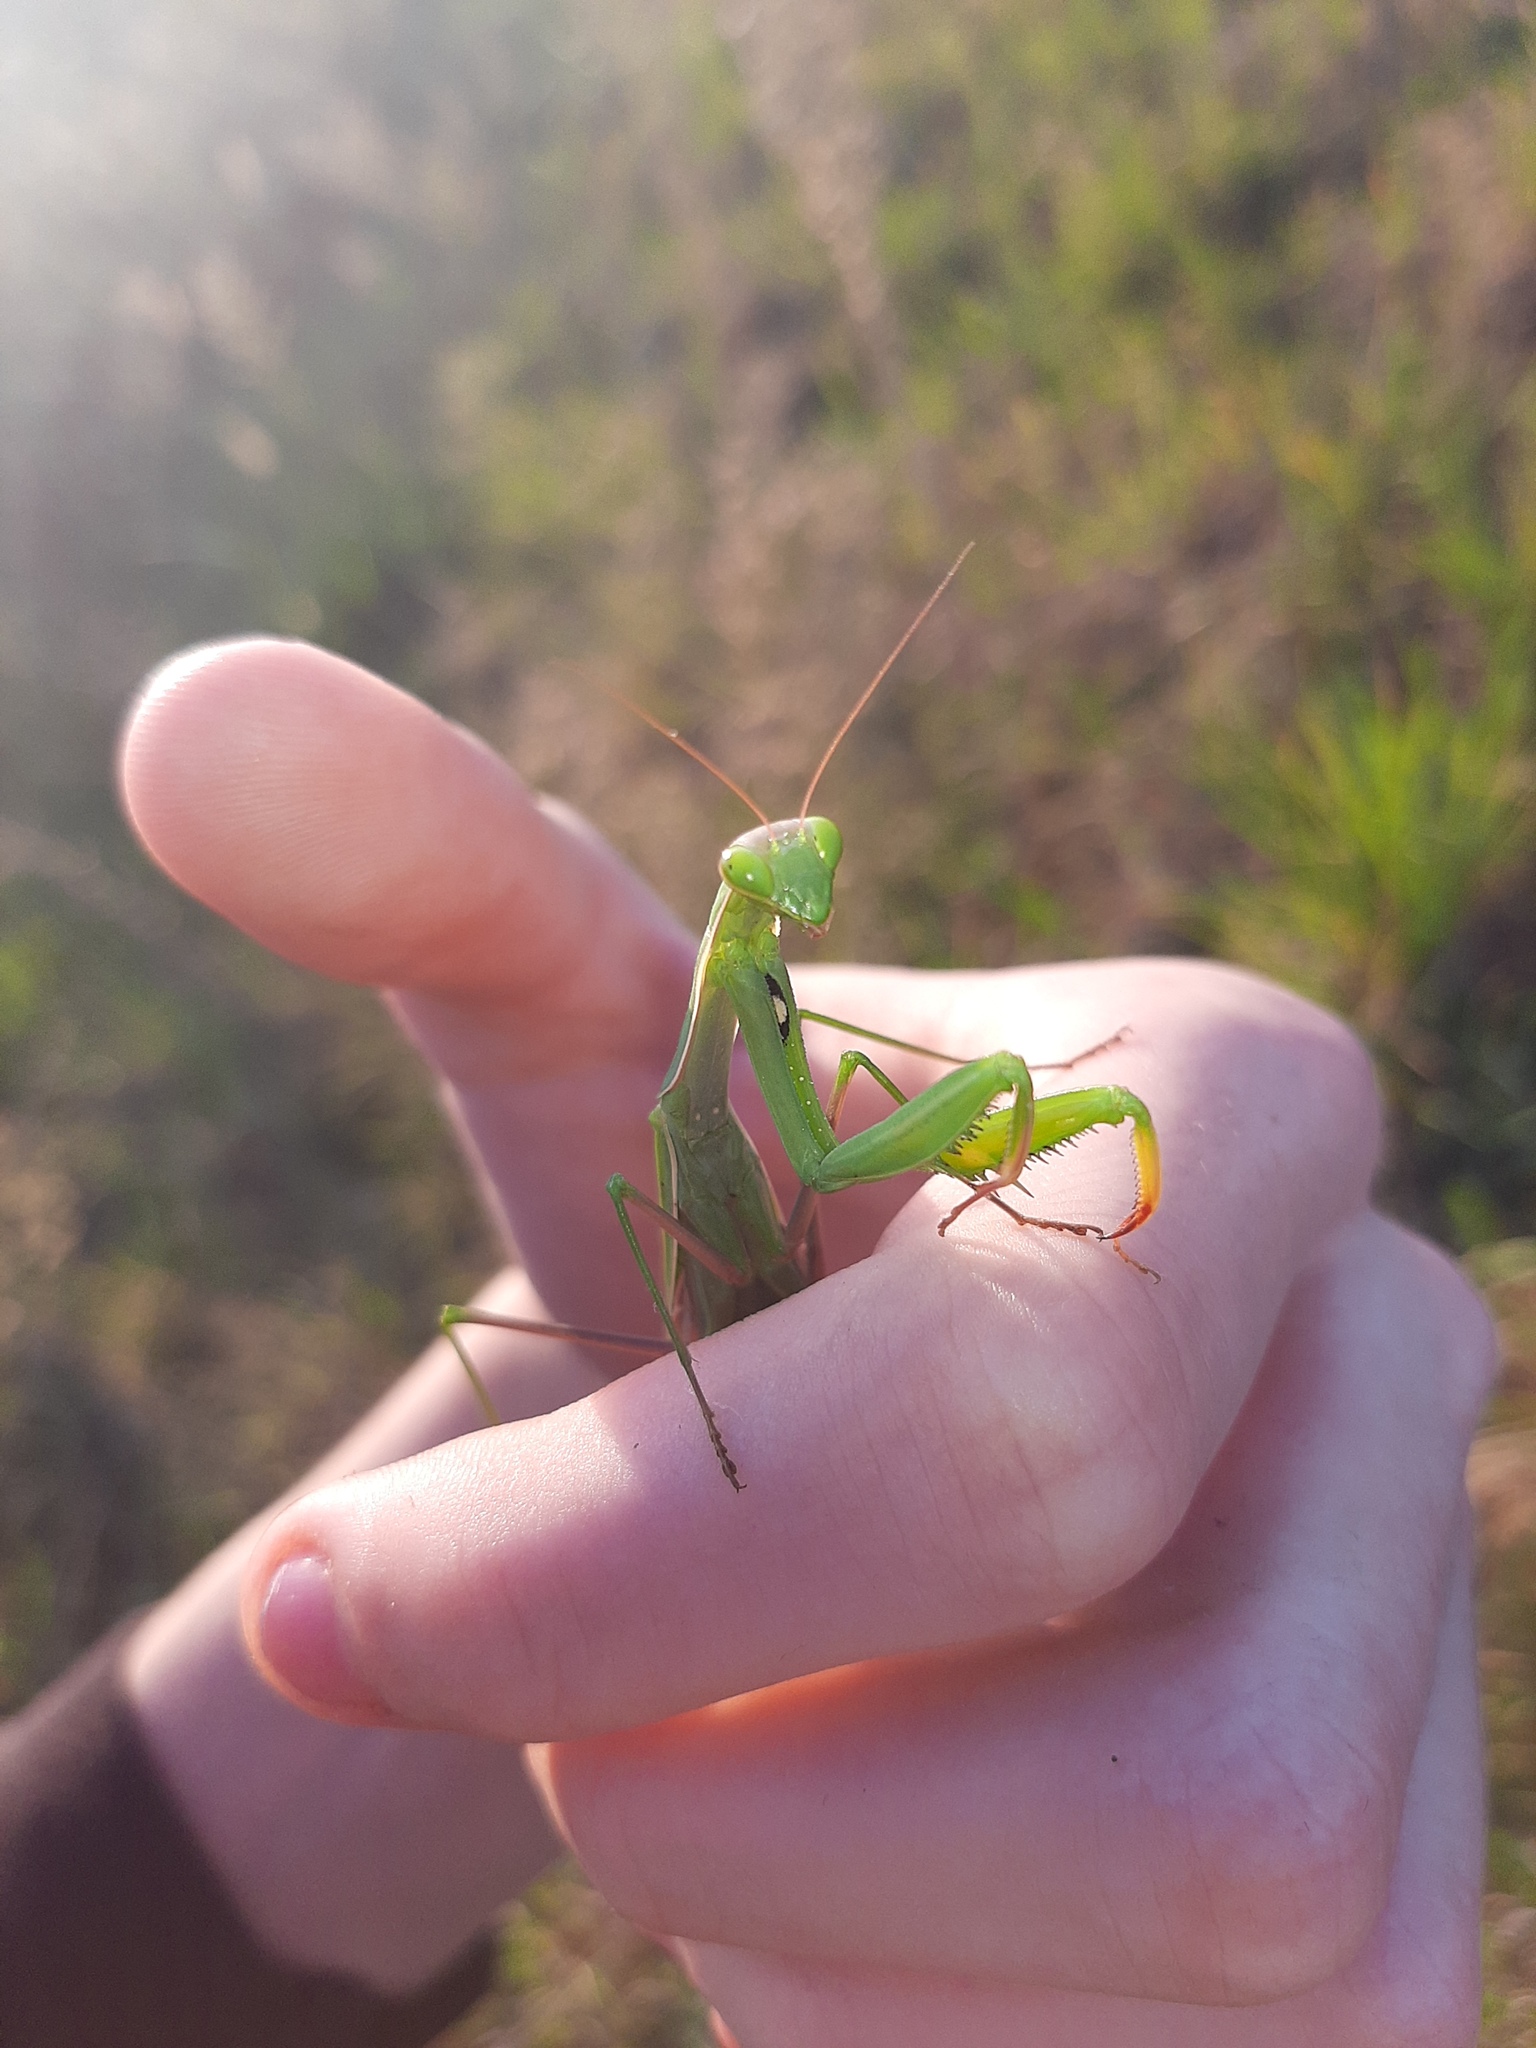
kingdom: Animalia
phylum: Arthropoda
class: Insecta
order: Mantodea
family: Mantidae
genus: Mantis
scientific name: Mantis religiosa
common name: Praying mantis
